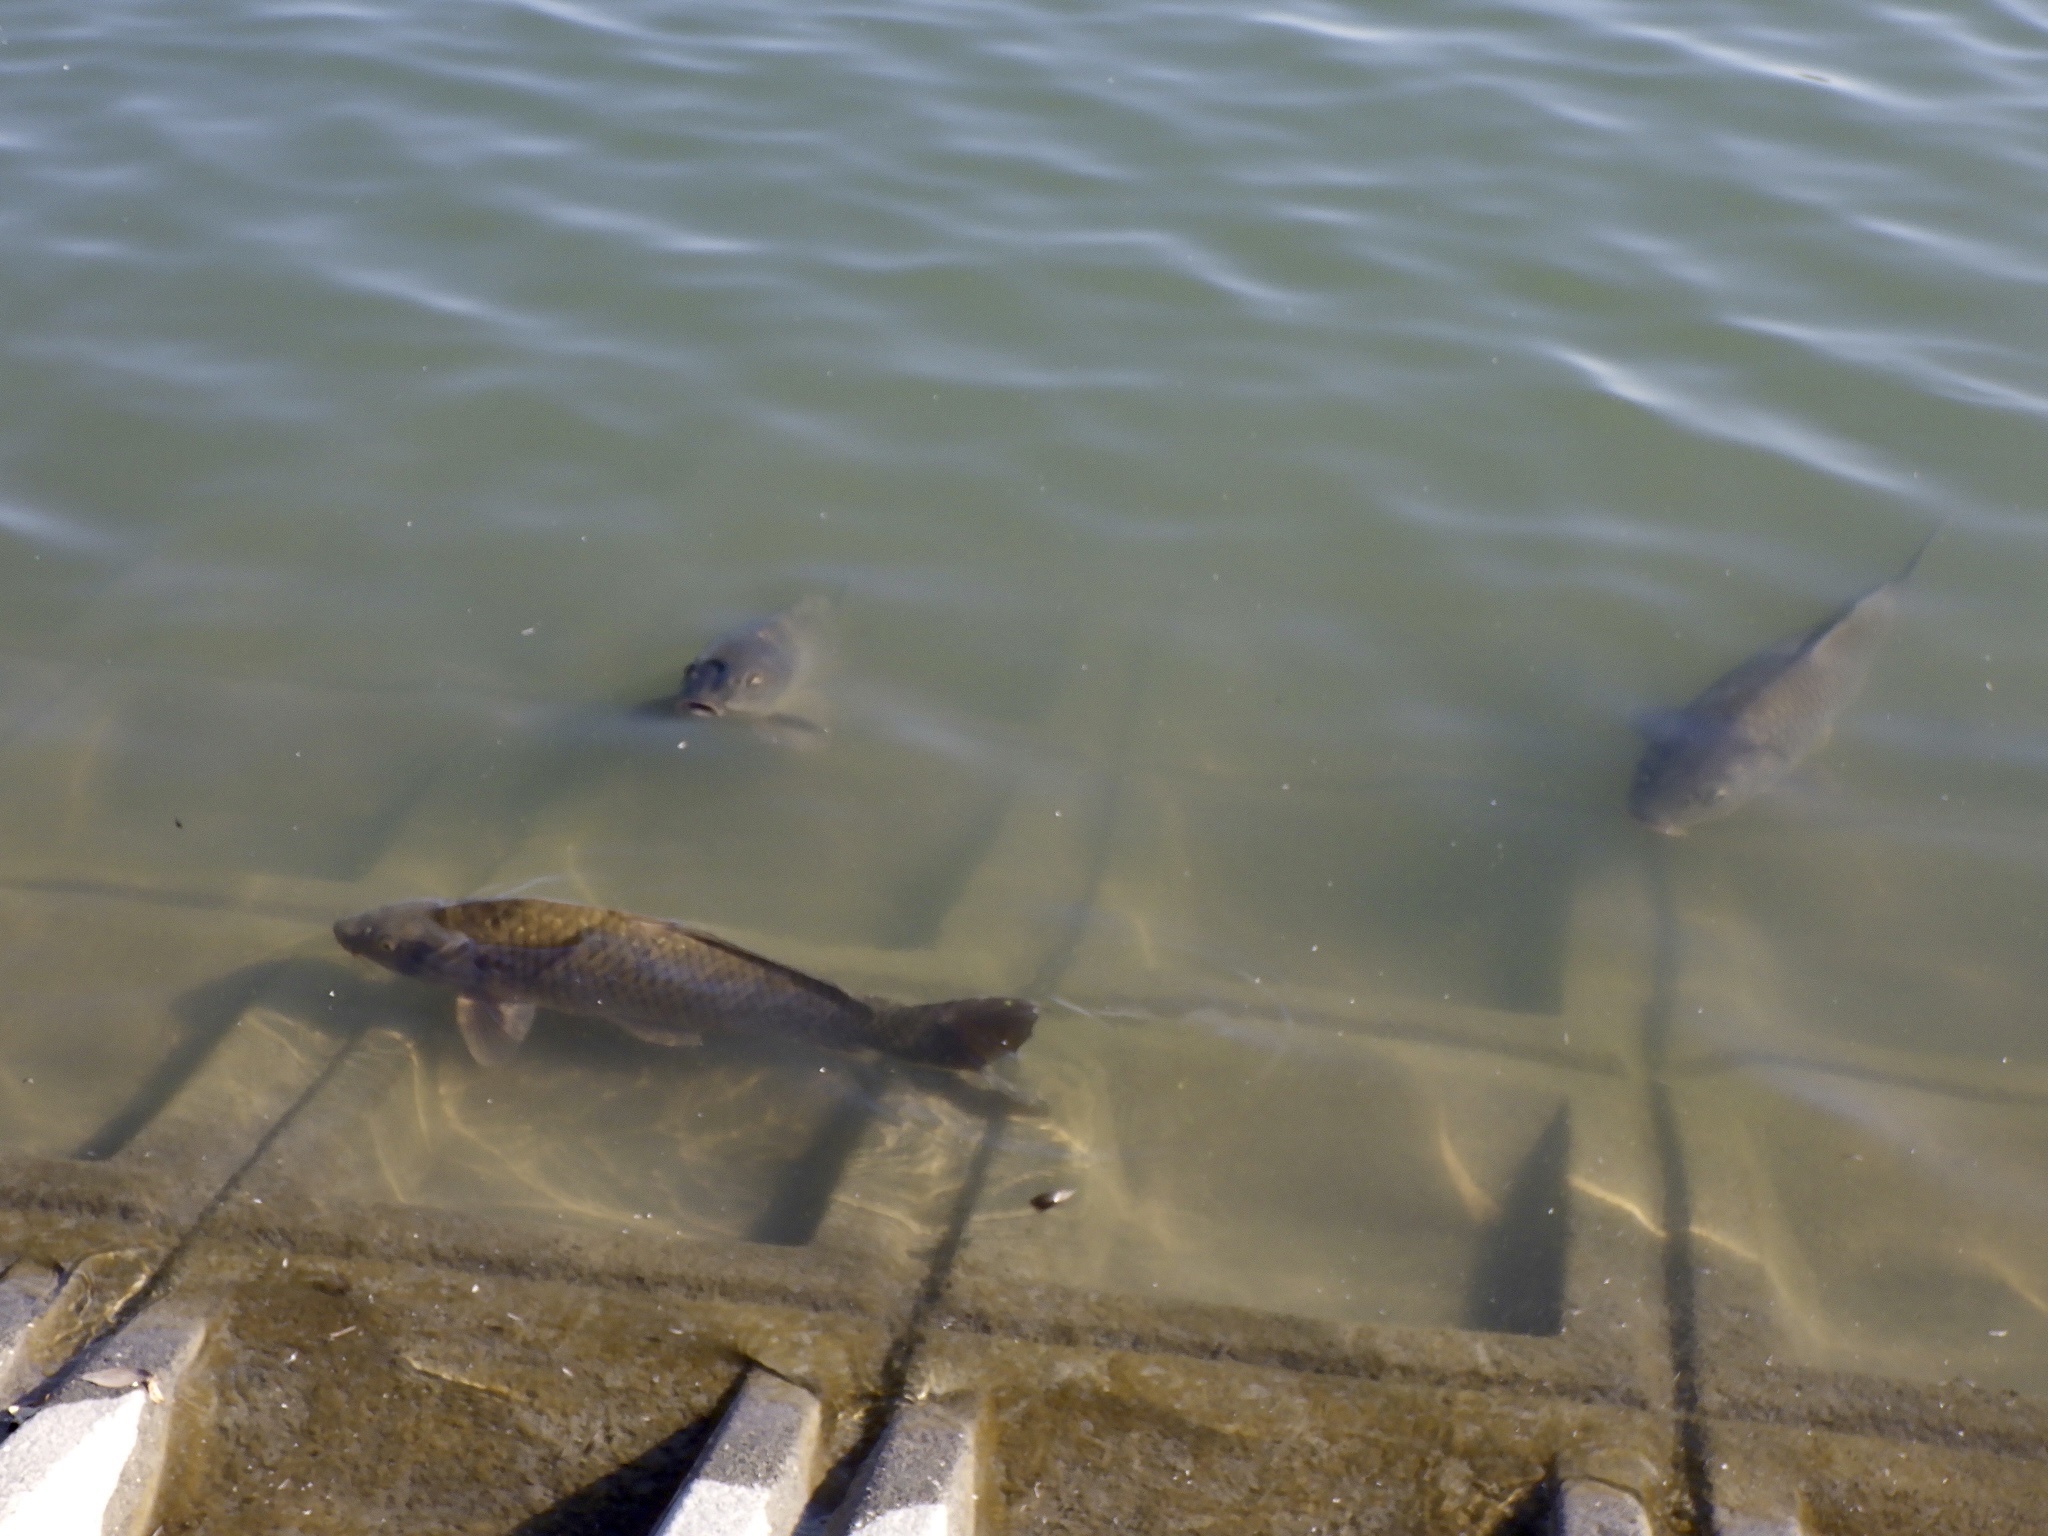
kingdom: Animalia
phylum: Chordata
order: Cypriniformes
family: Cyprinidae
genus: Cyprinus
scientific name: Cyprinus rubrofuscus
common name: Koi
